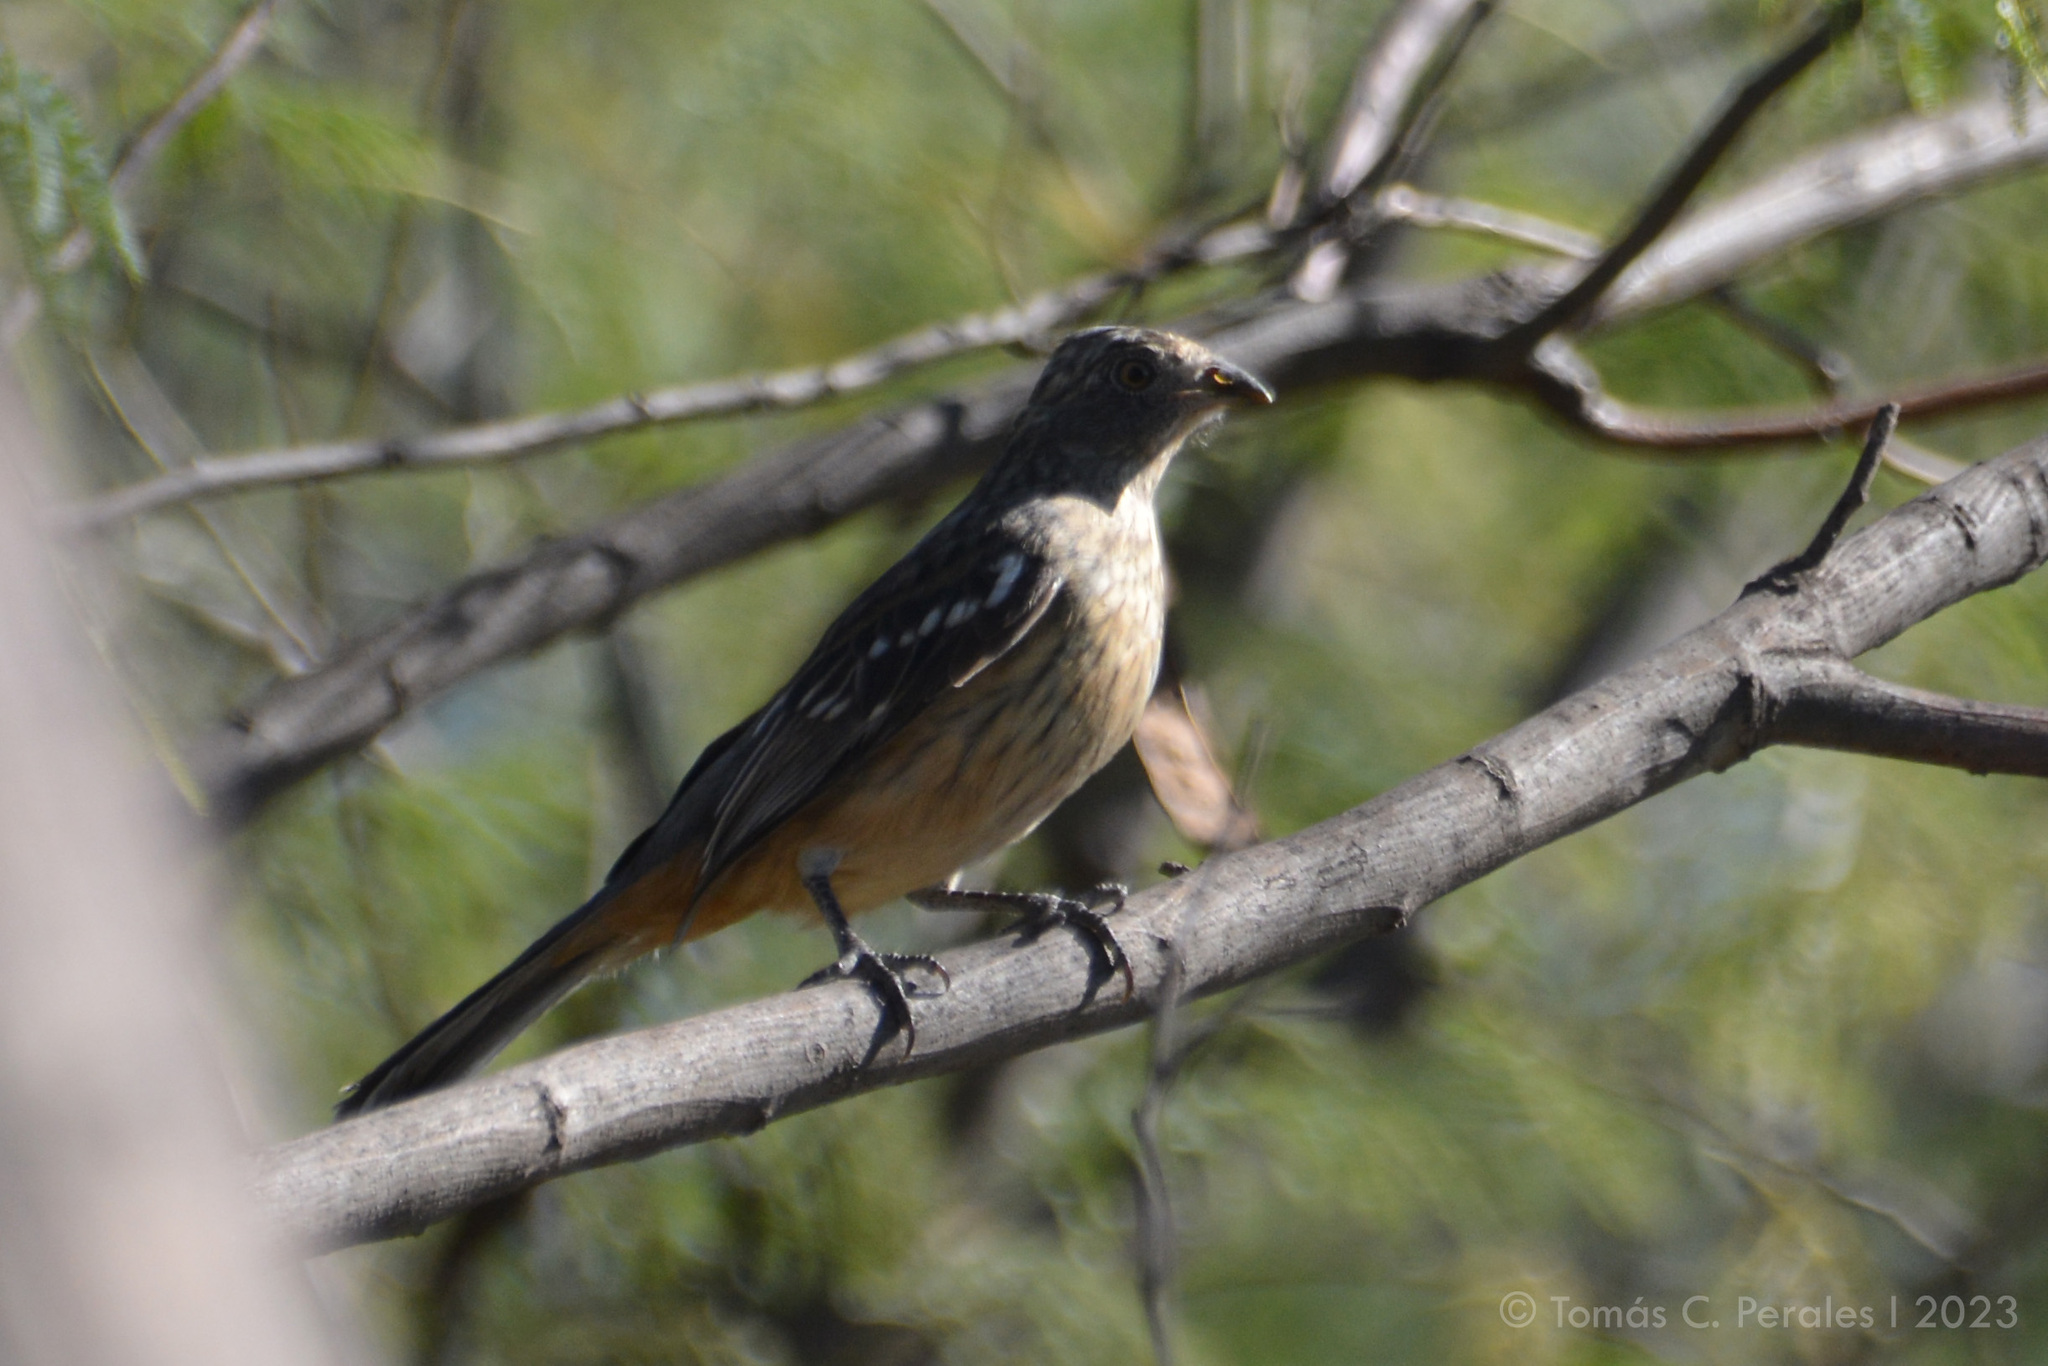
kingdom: Animalia
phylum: Chordata
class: Aves
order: Passeriformes
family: Cotingidae
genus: Phytotoma
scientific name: Phytotoma rutila
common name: White-tipped plantcutter
